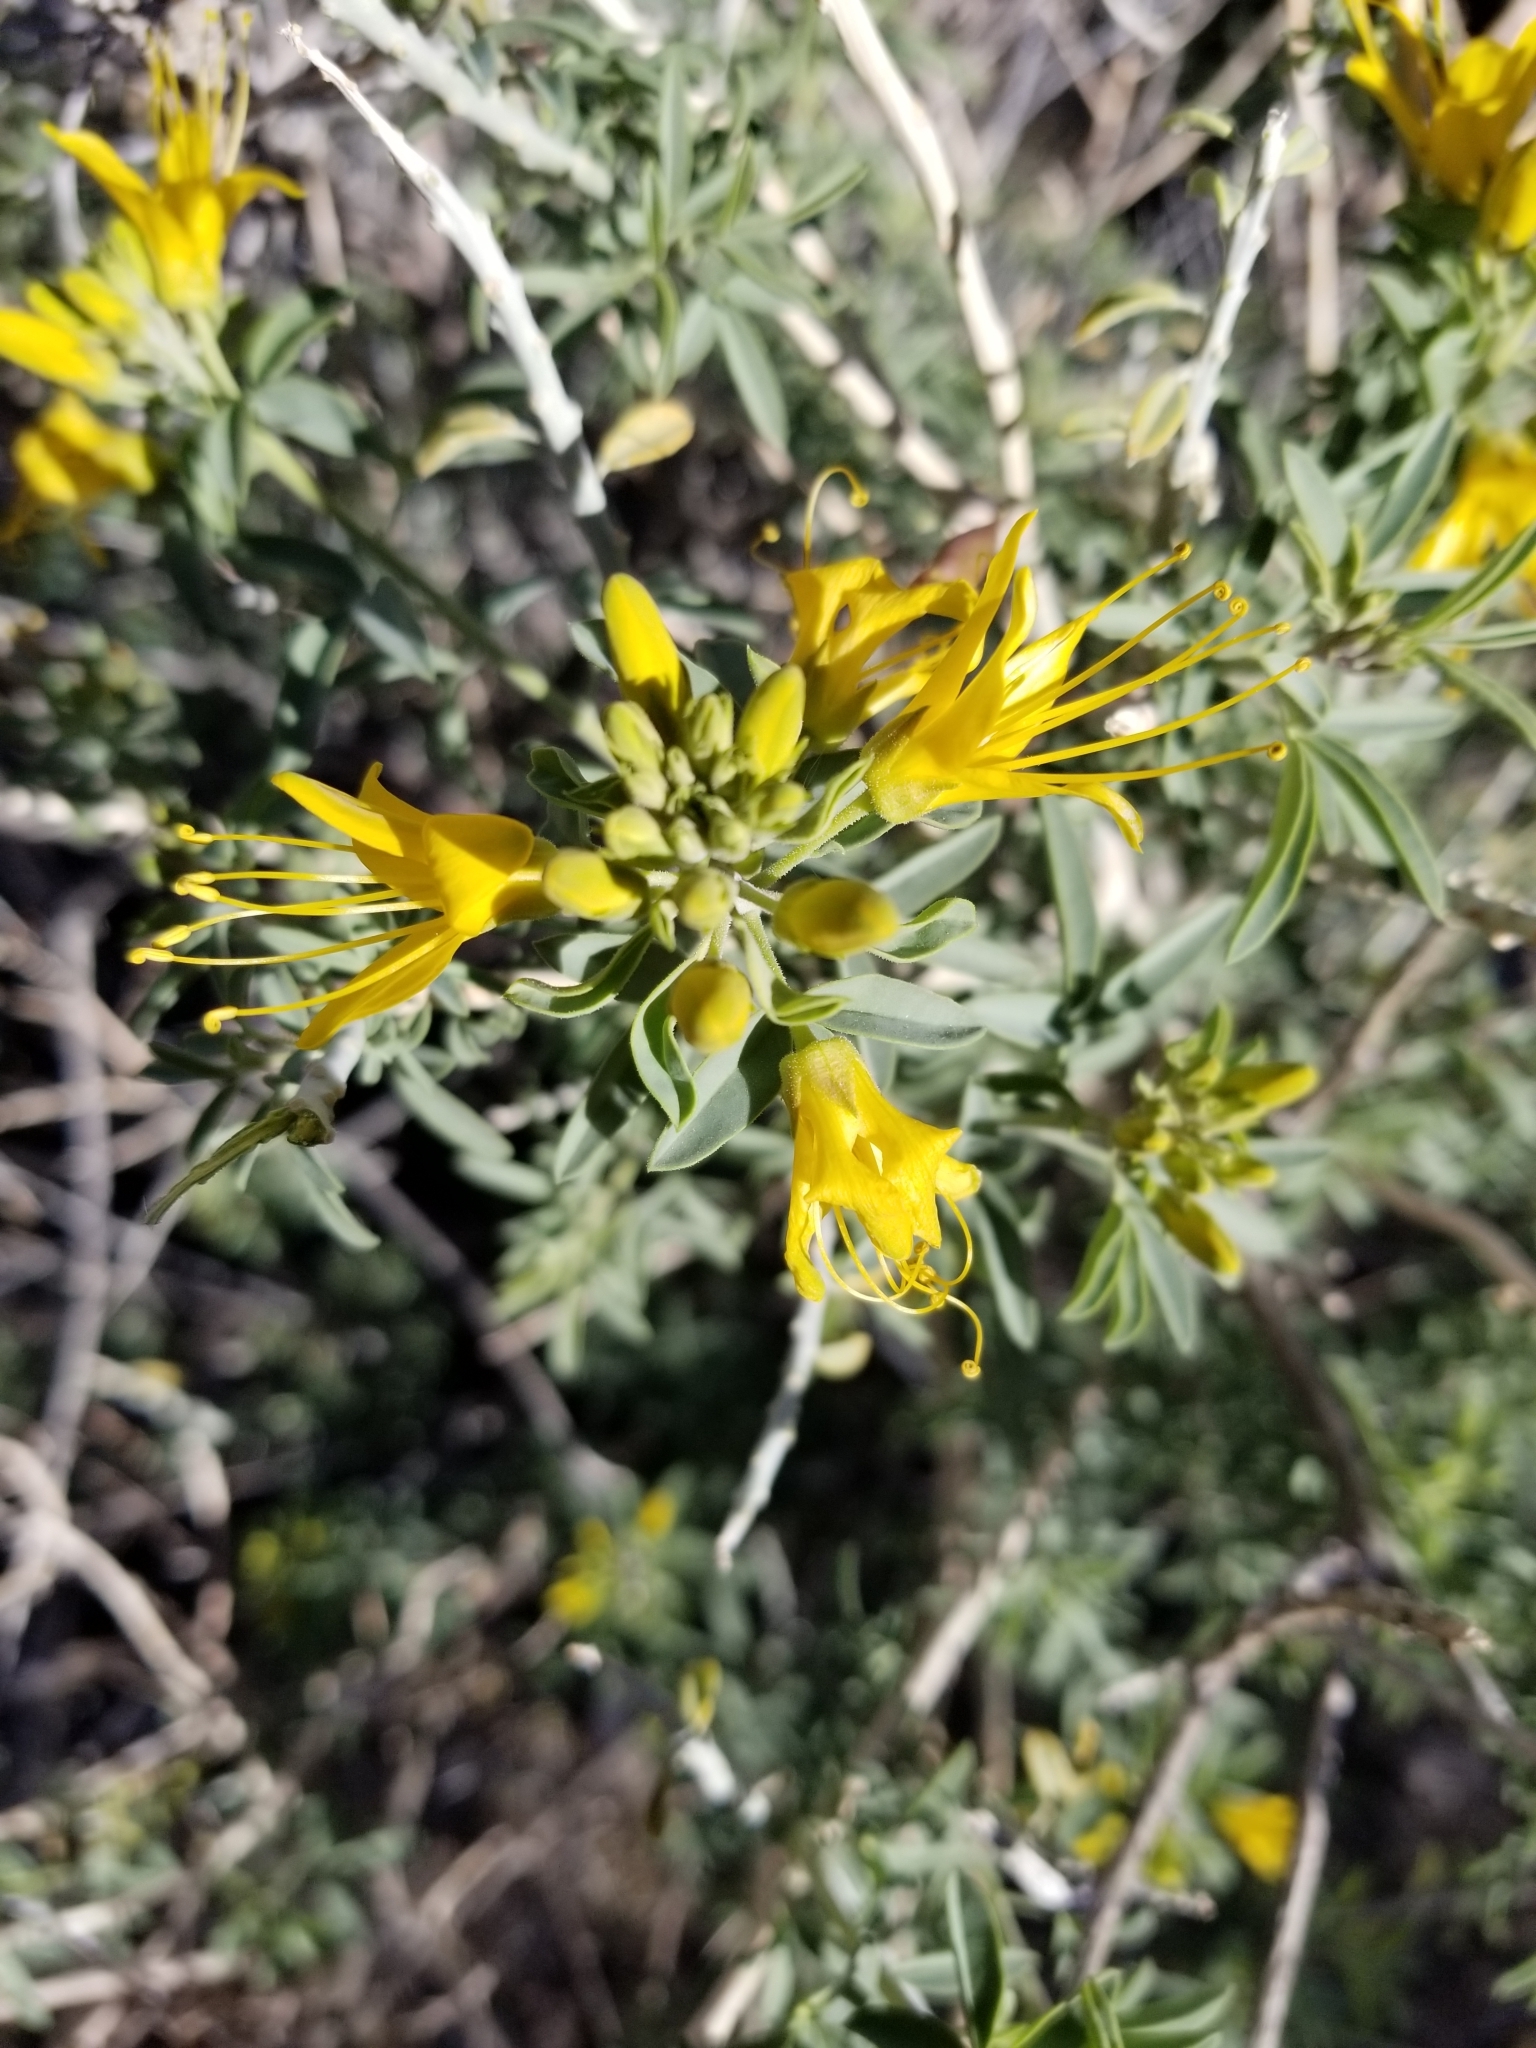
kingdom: Plantae
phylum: Tracheophyta
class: Magnoliopsida
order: Brassicales
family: Cleomaceae
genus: Cleomella
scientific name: Cleomella arborea
